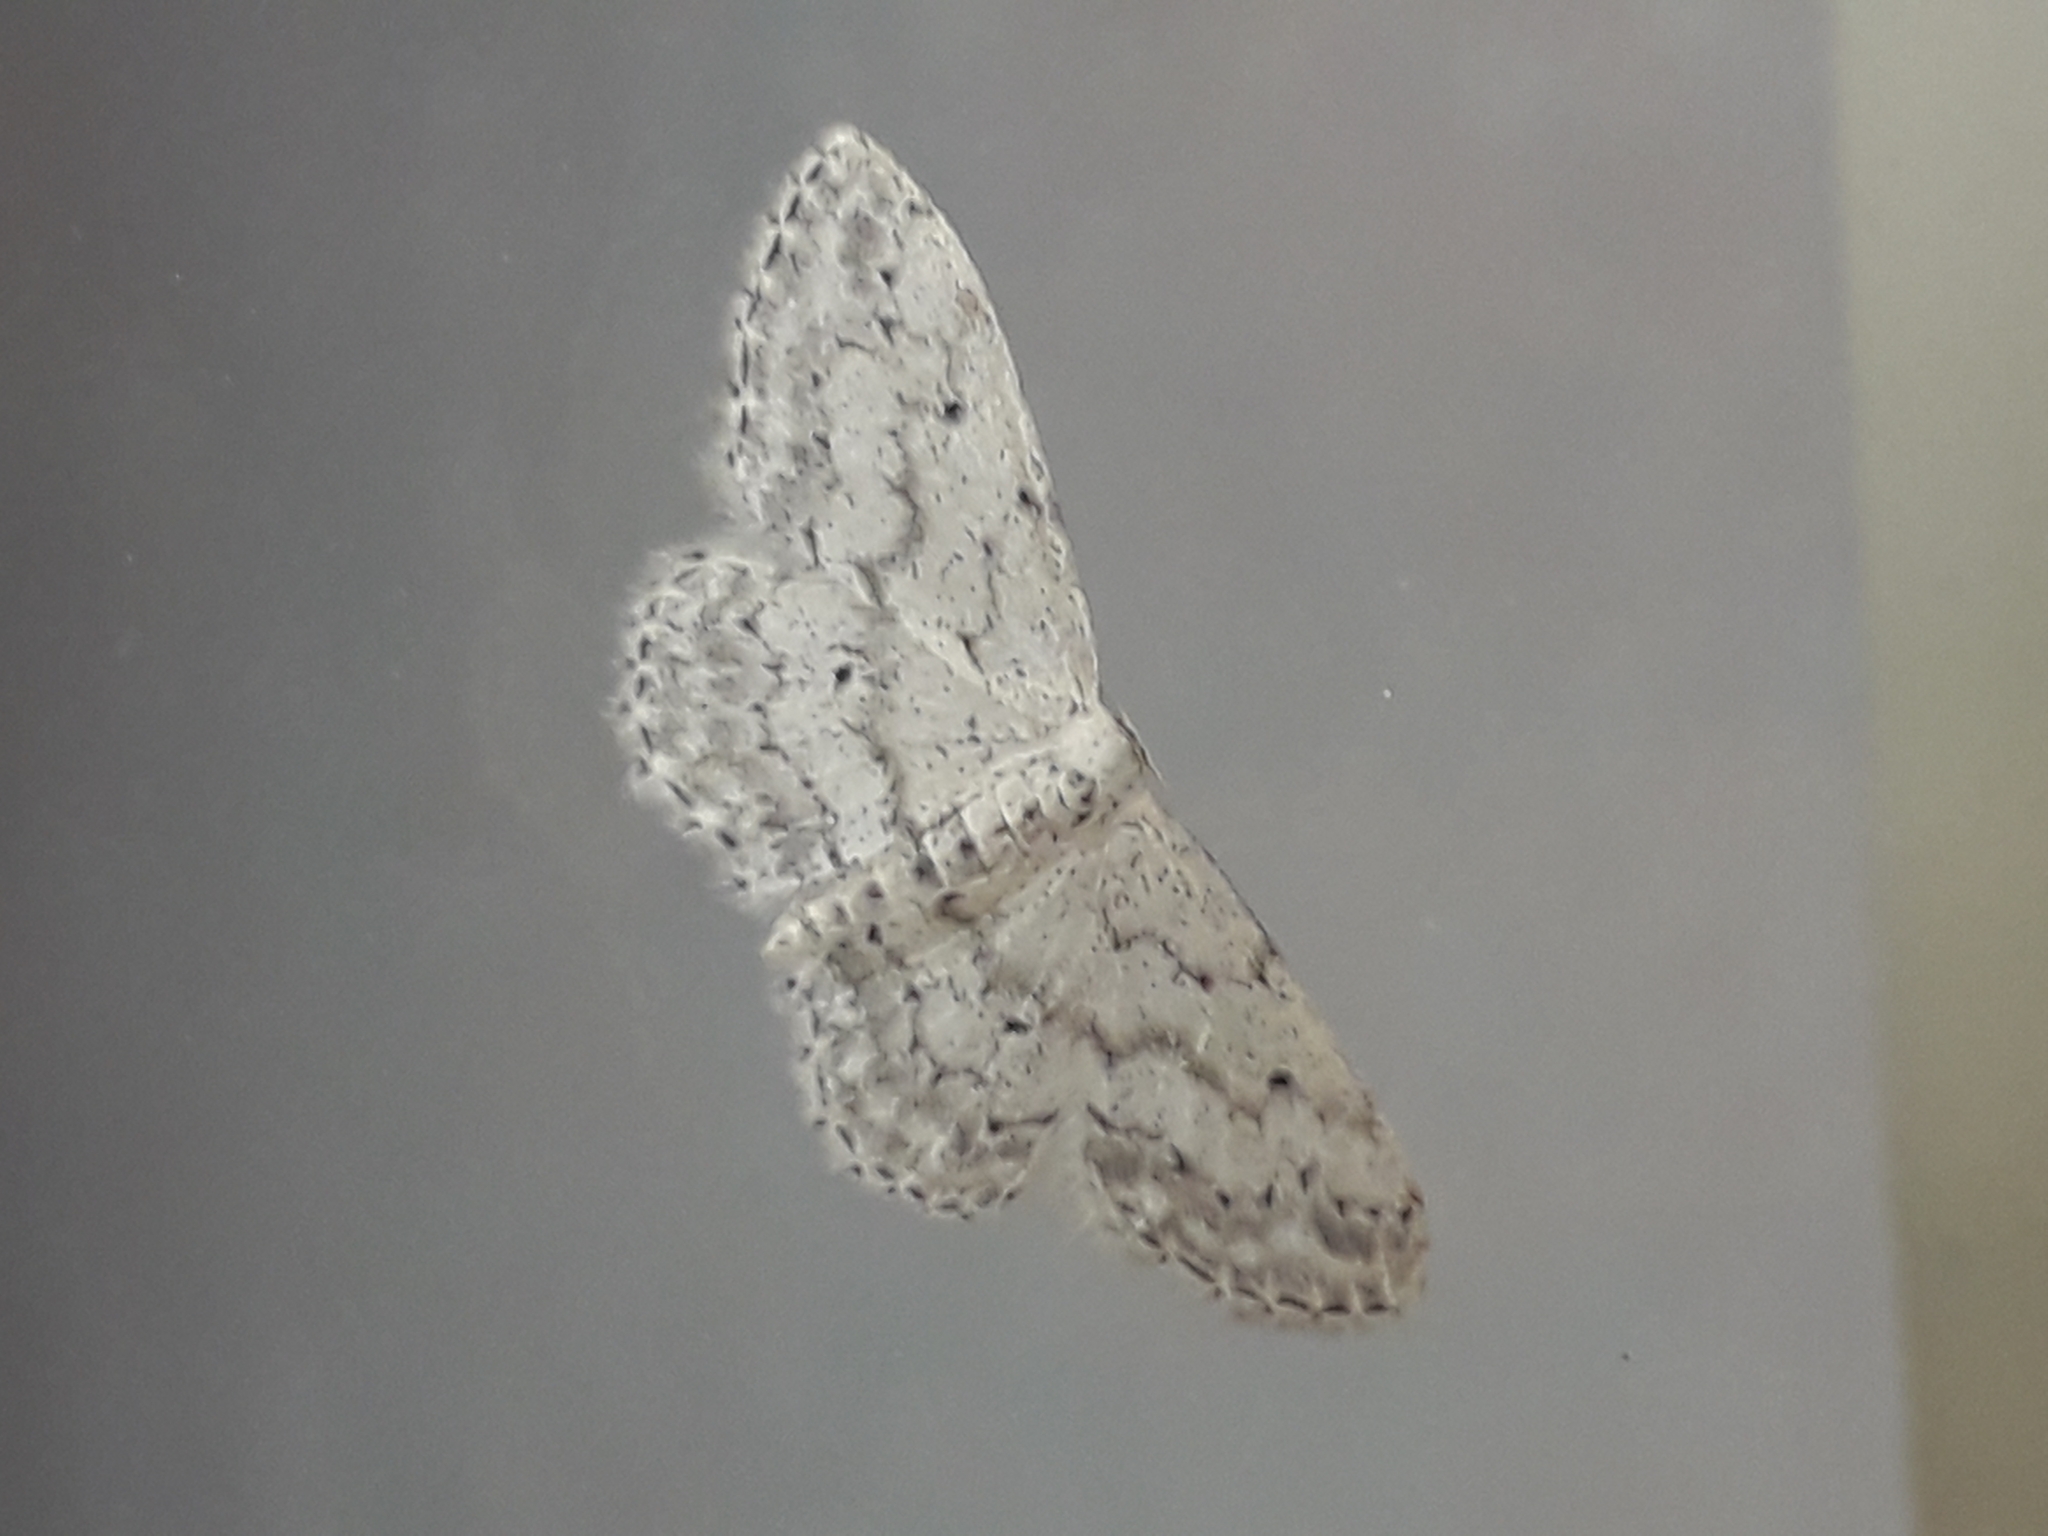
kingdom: Animalia
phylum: Arthropoda
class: Insecta
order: Lepidoptera
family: Geometridae
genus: Idaea
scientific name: Idaea seriata
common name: Small dusty wave
